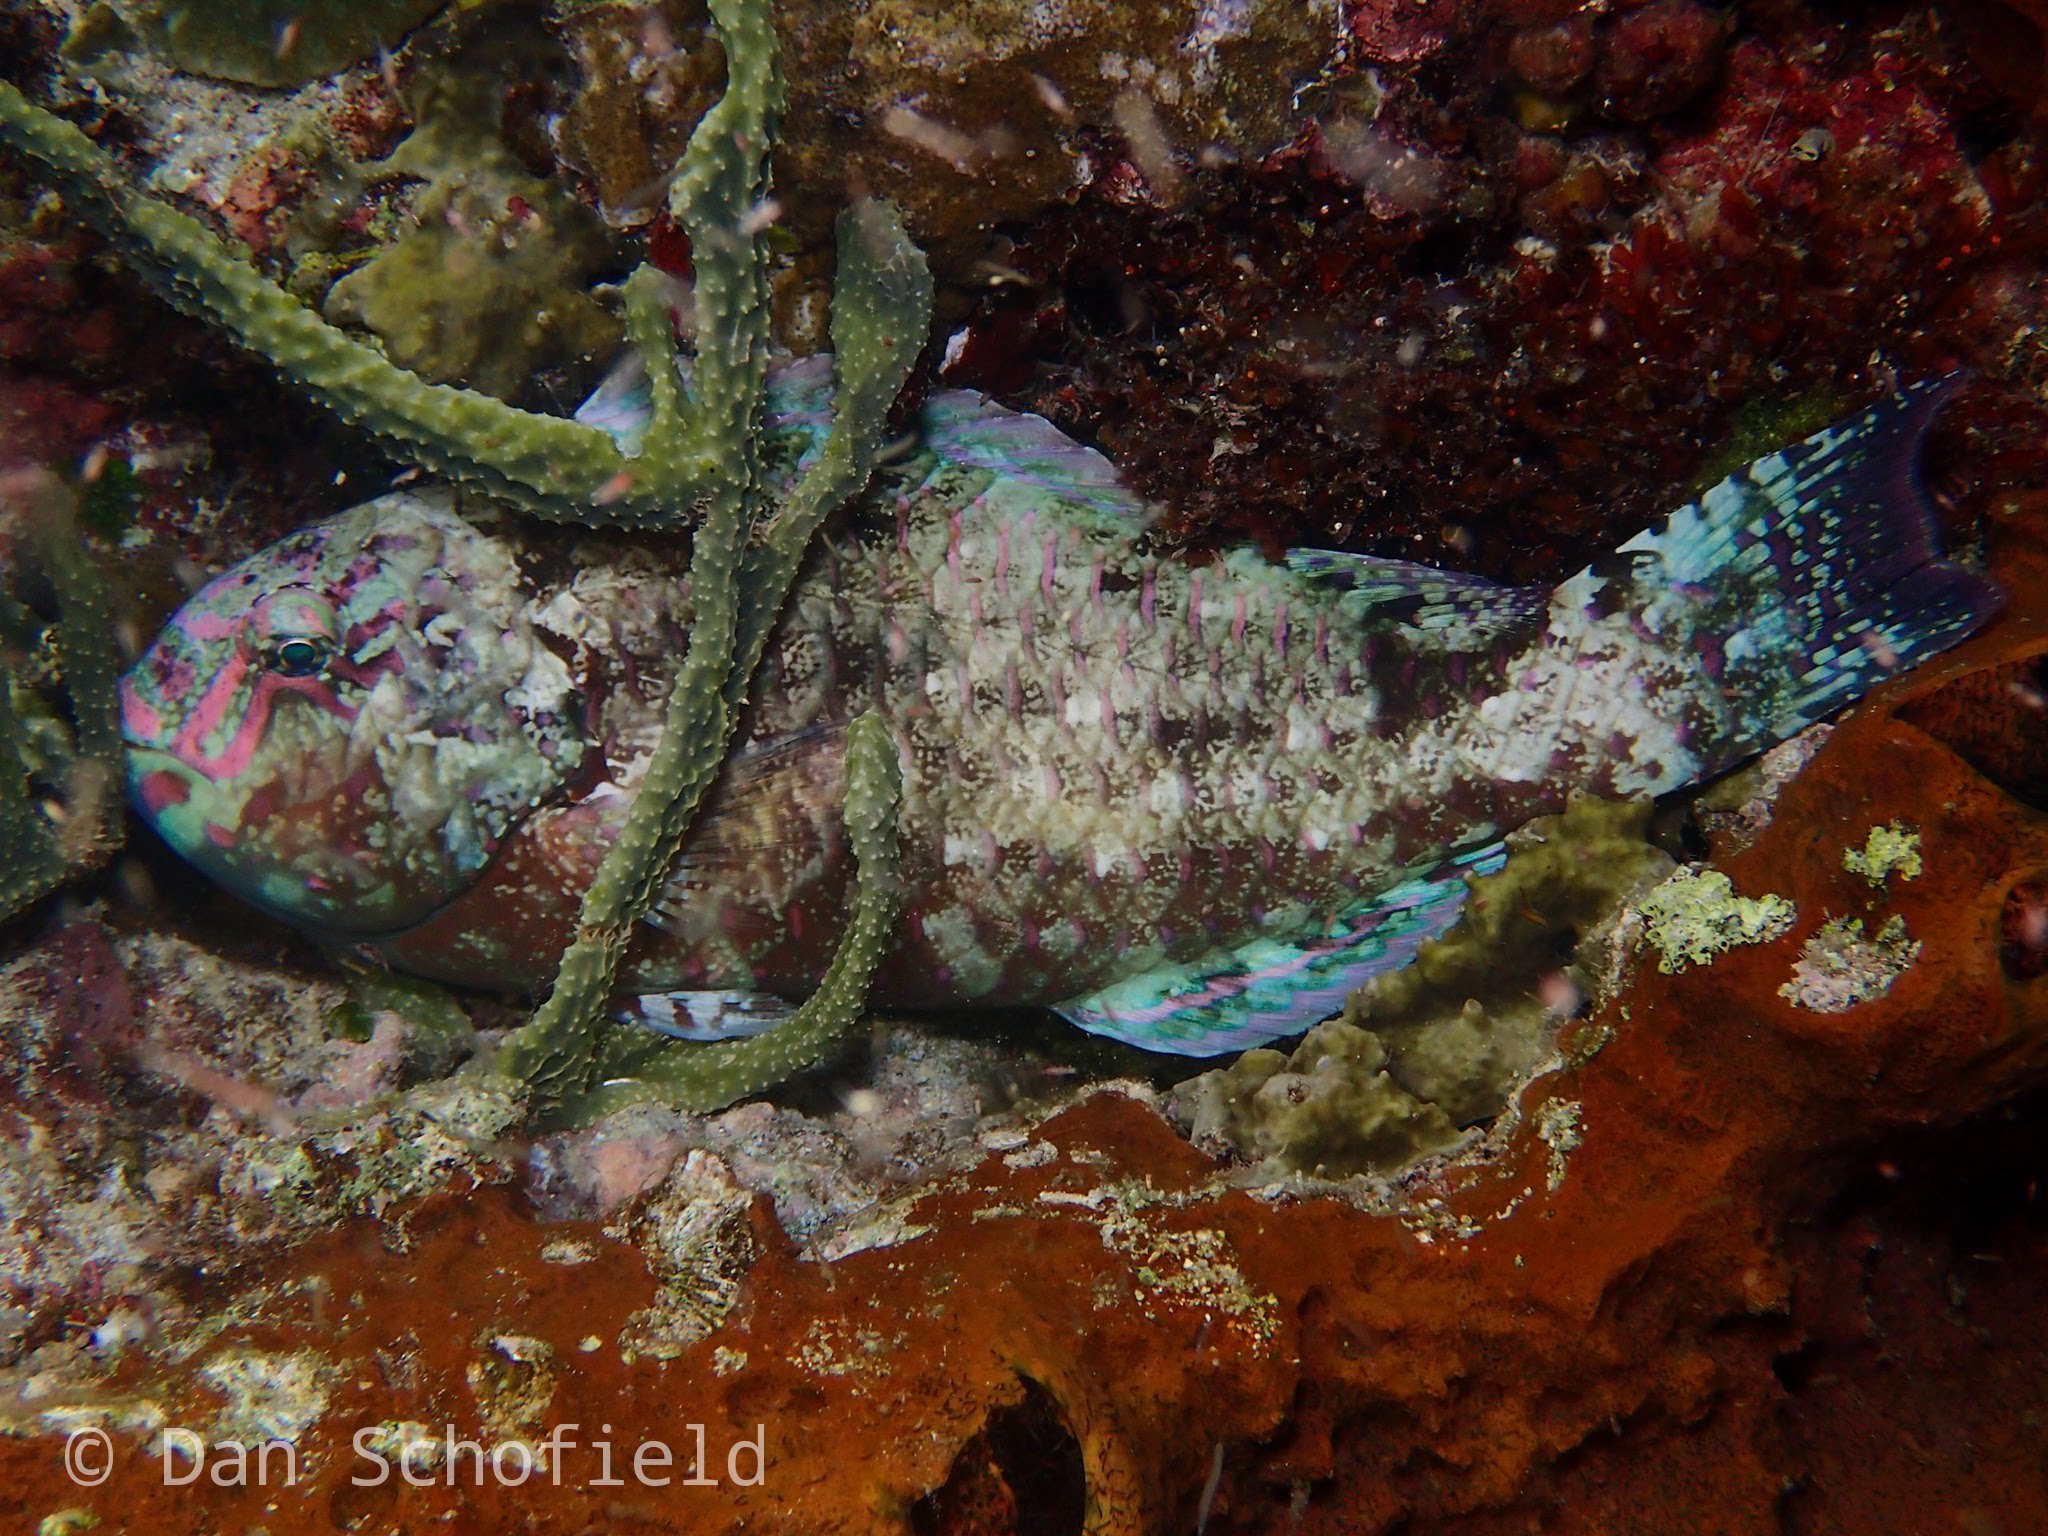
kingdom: Animalia
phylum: Chordata
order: Perciformes
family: Scaridae
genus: Calotomus
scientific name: Calotomus carolinus
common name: Bucktooth
